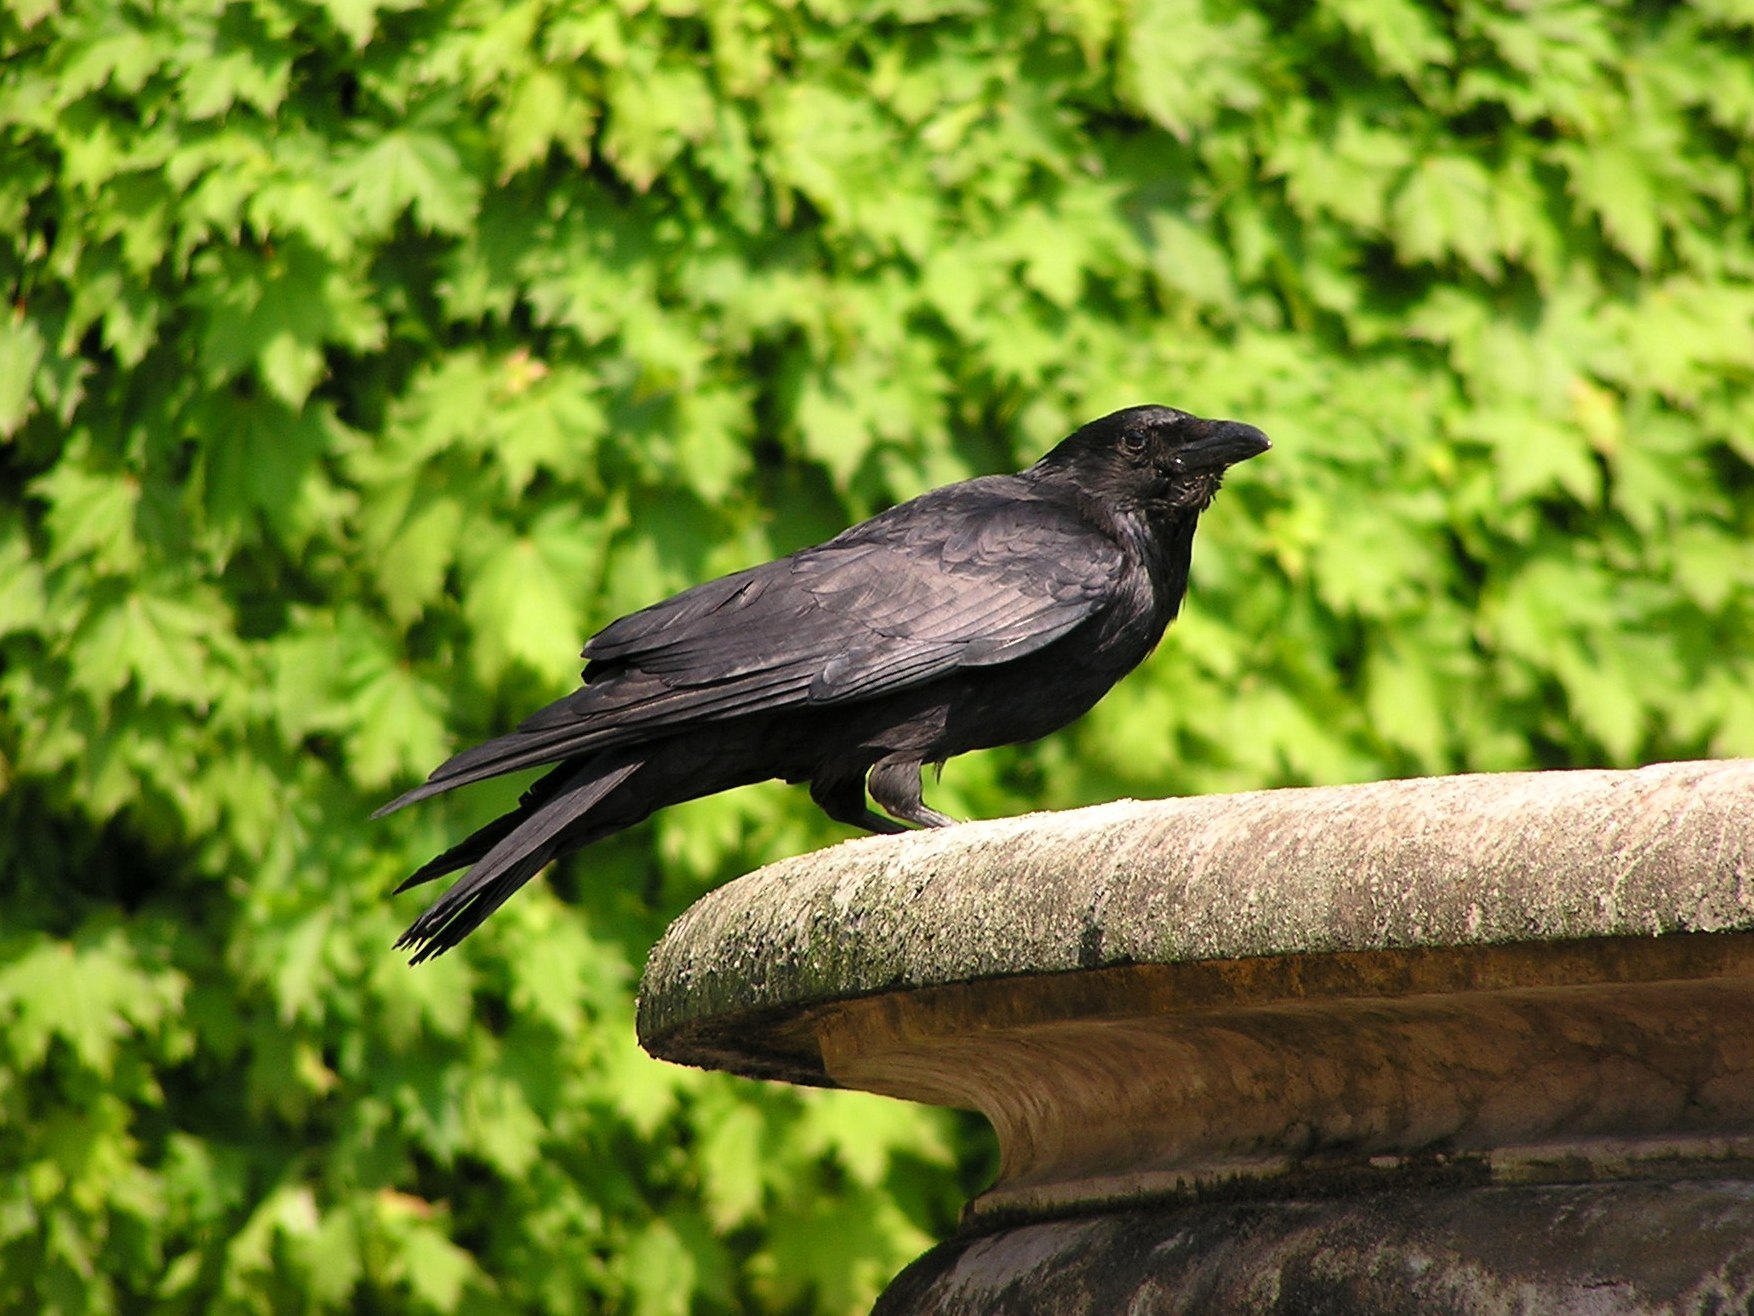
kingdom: Animalia
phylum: Chordata
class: Aves
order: Passeriformes
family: Corvidae
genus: Corvus
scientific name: Corvus corone
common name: Carrion crow
